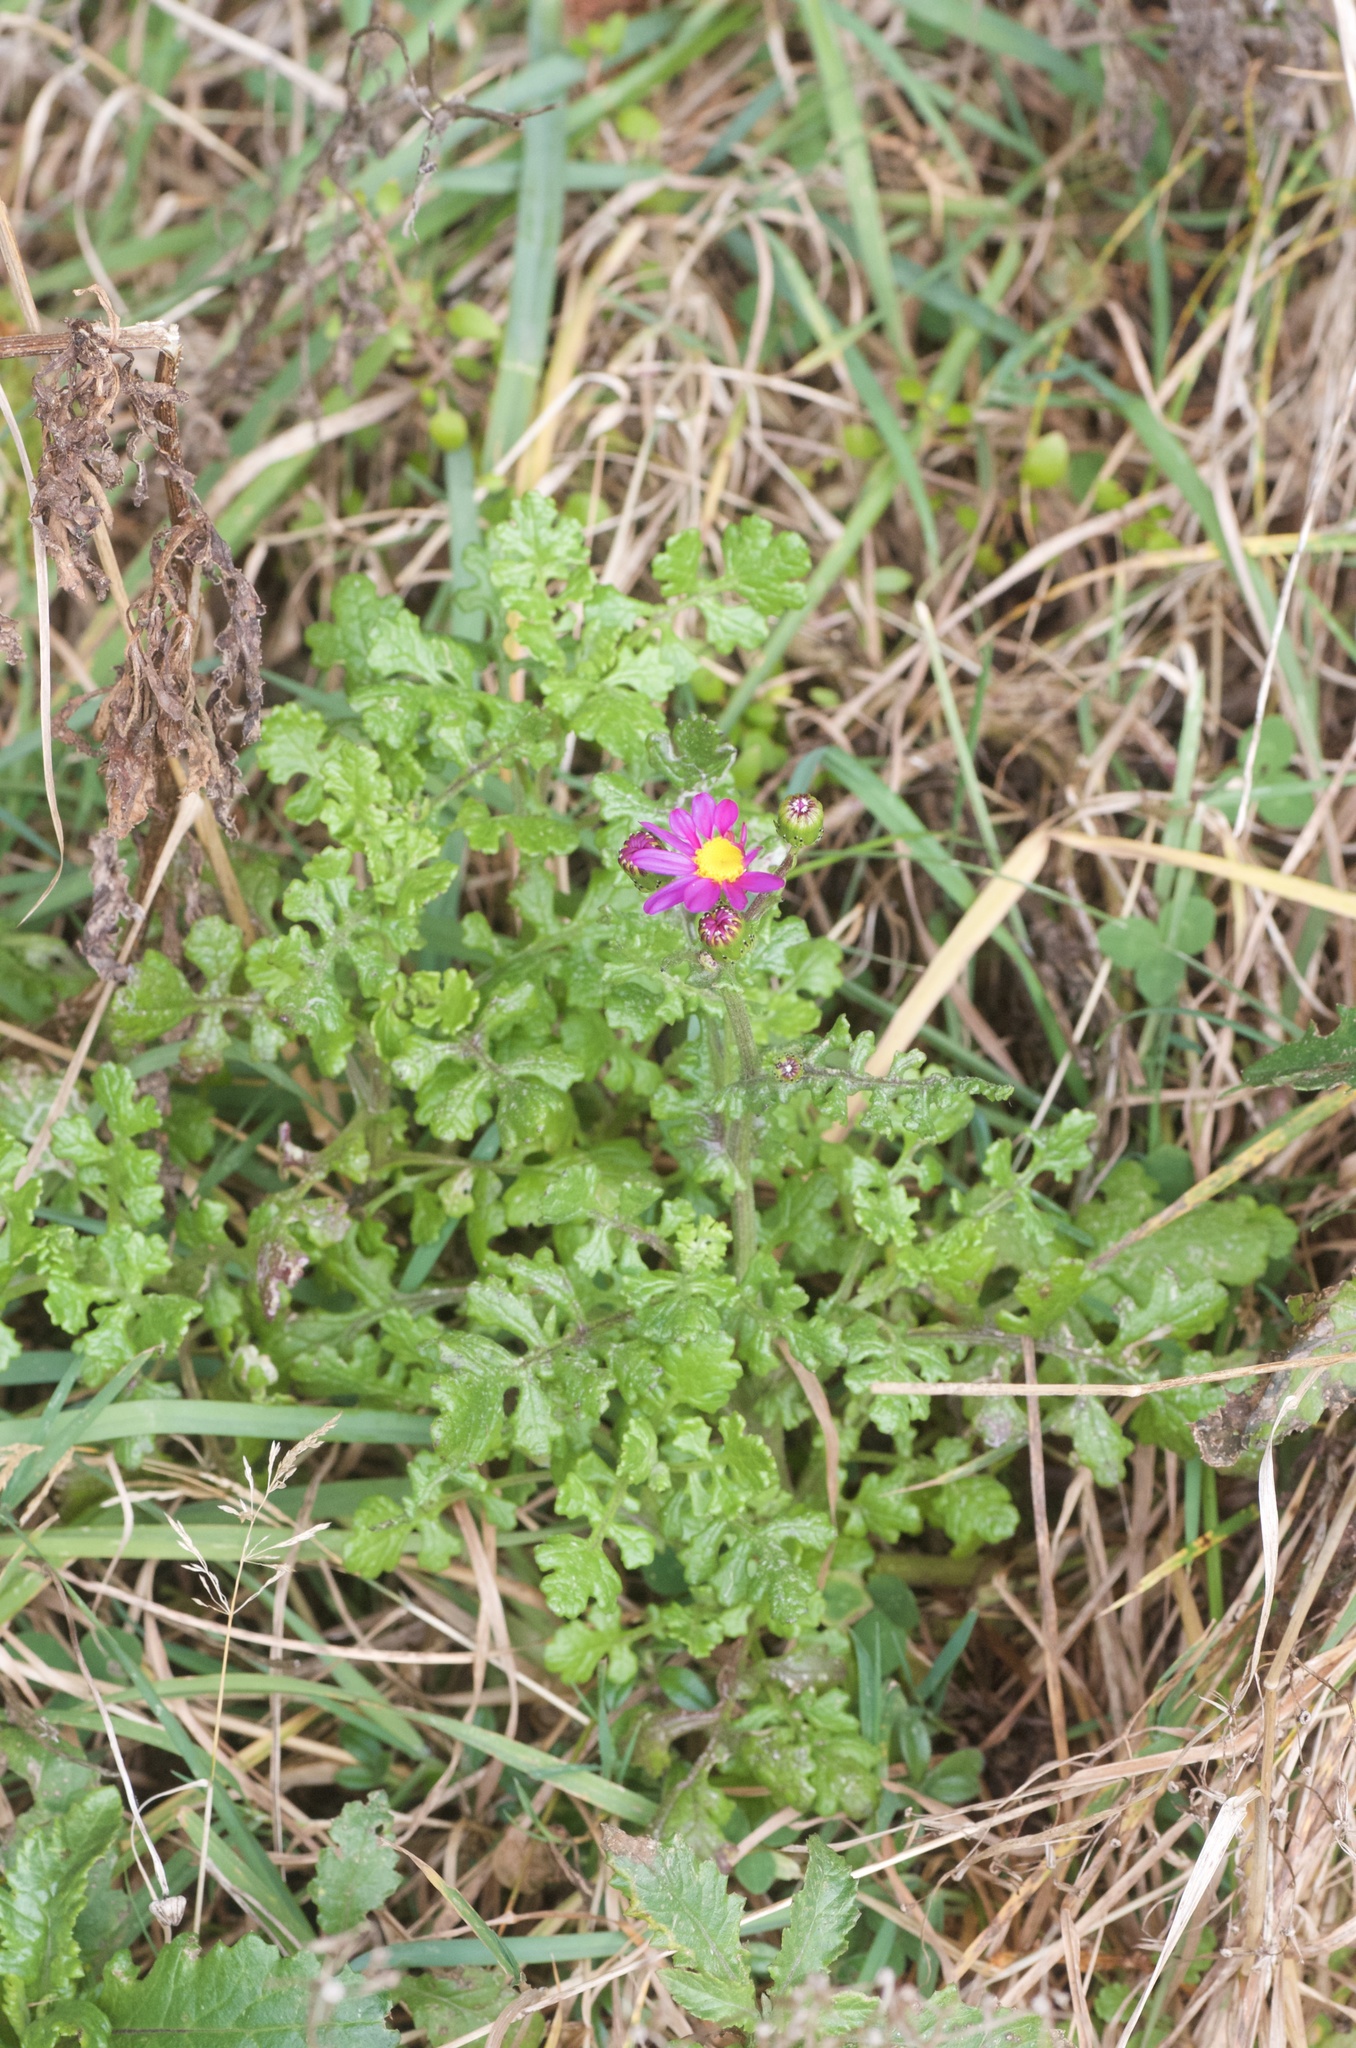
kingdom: Plantae
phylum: Tracheophyta
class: Magnoliopsida
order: Asterales
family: Asteraceae
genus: Senecio
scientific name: Senecio elegans
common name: Purple groundsel
